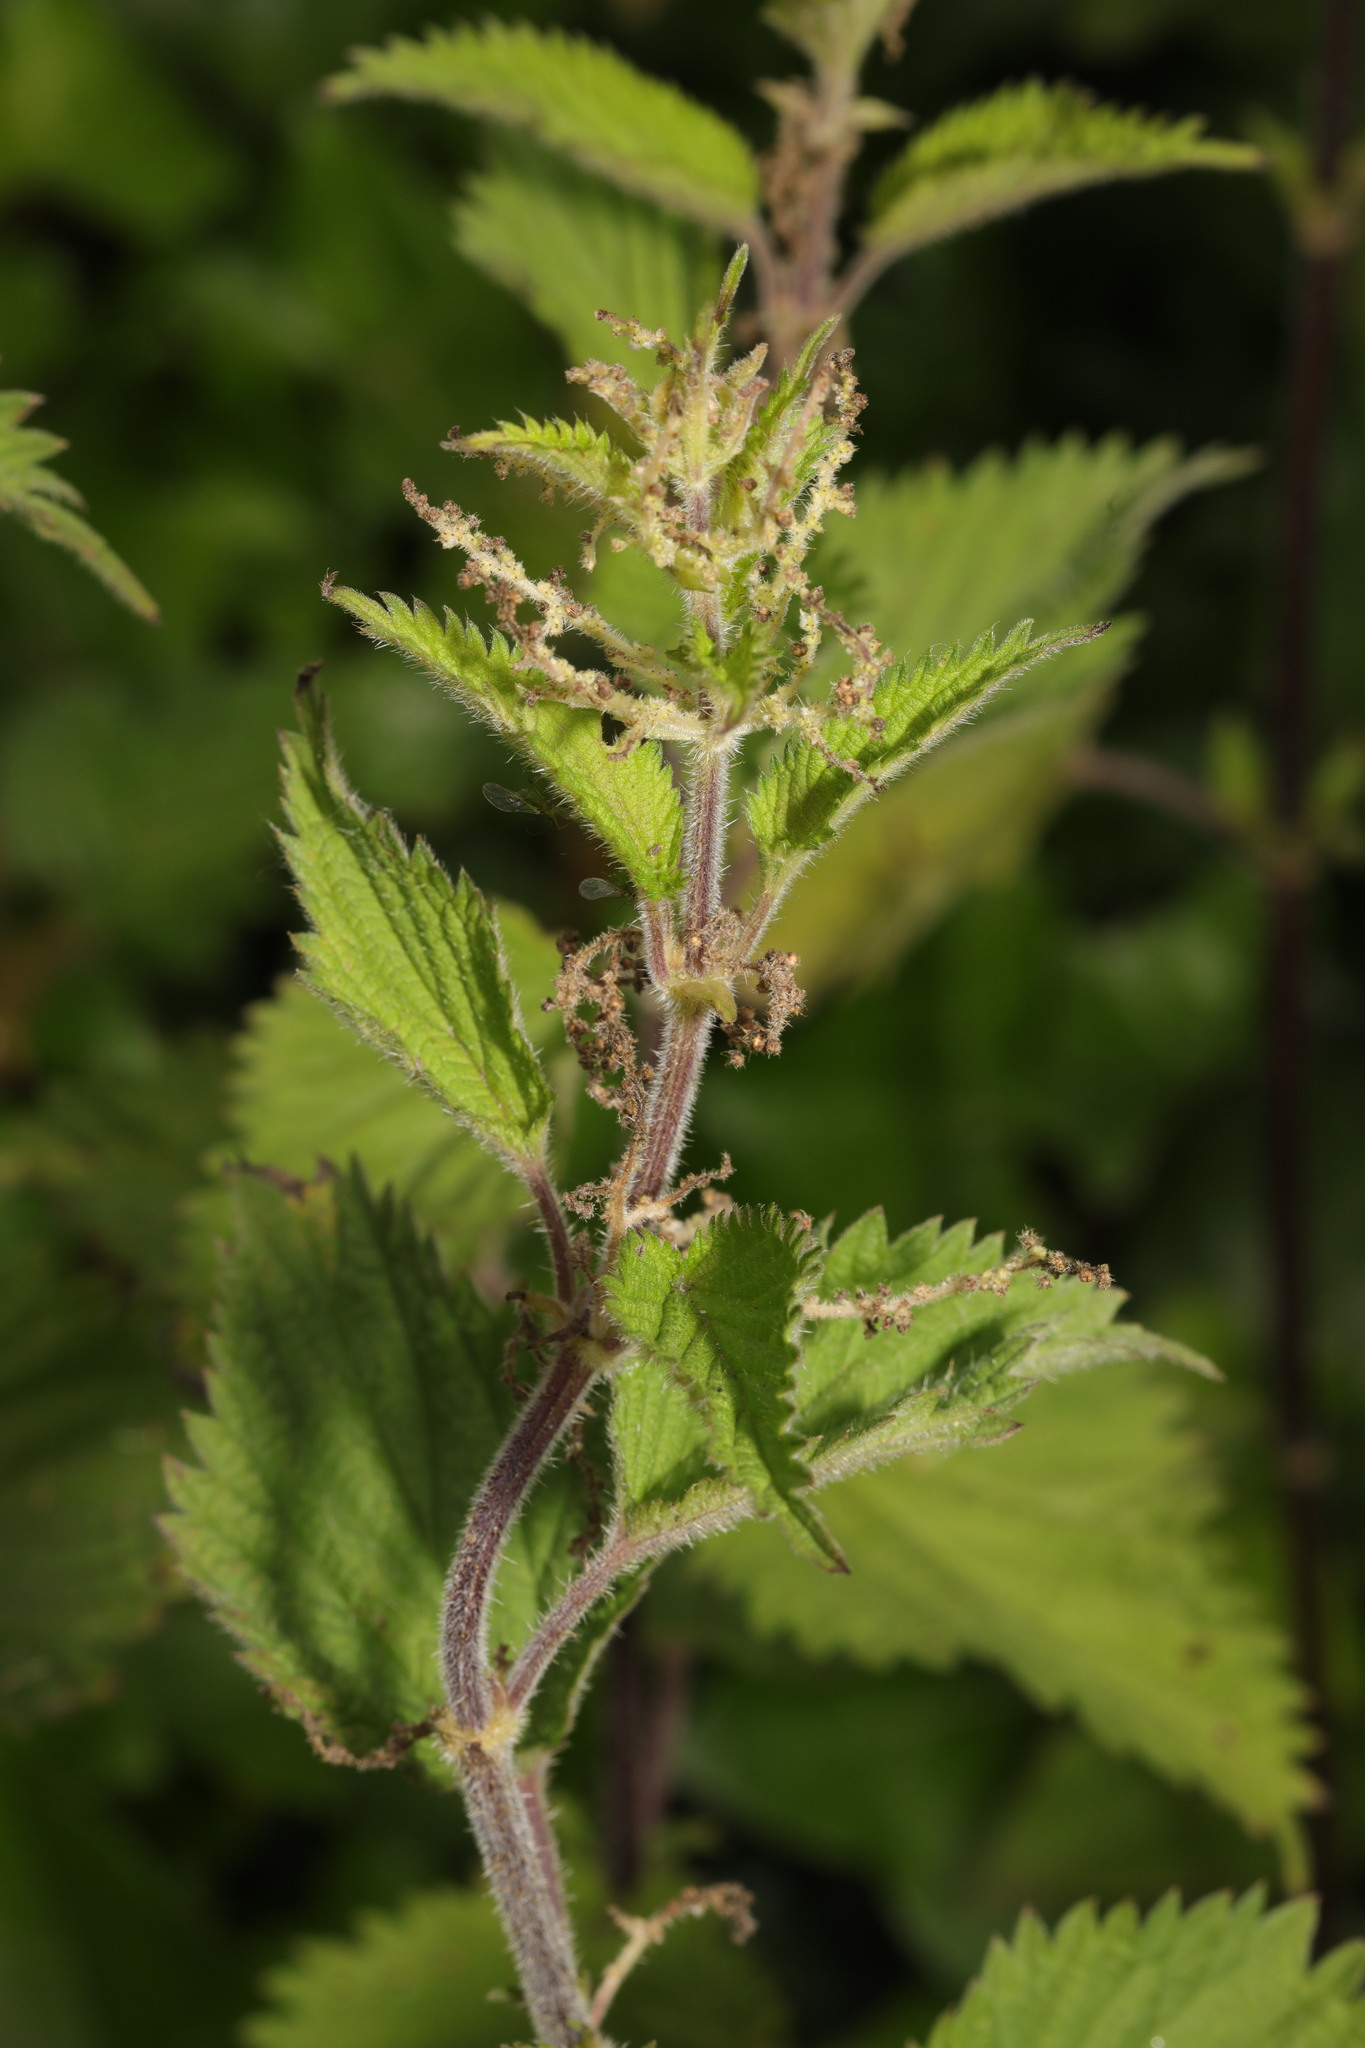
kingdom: Plantae
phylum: Tracheophyta
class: Magnoliopsida
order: Rosales
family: Urticaceae
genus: Urtica
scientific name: Urtica dioica
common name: Common nettle
